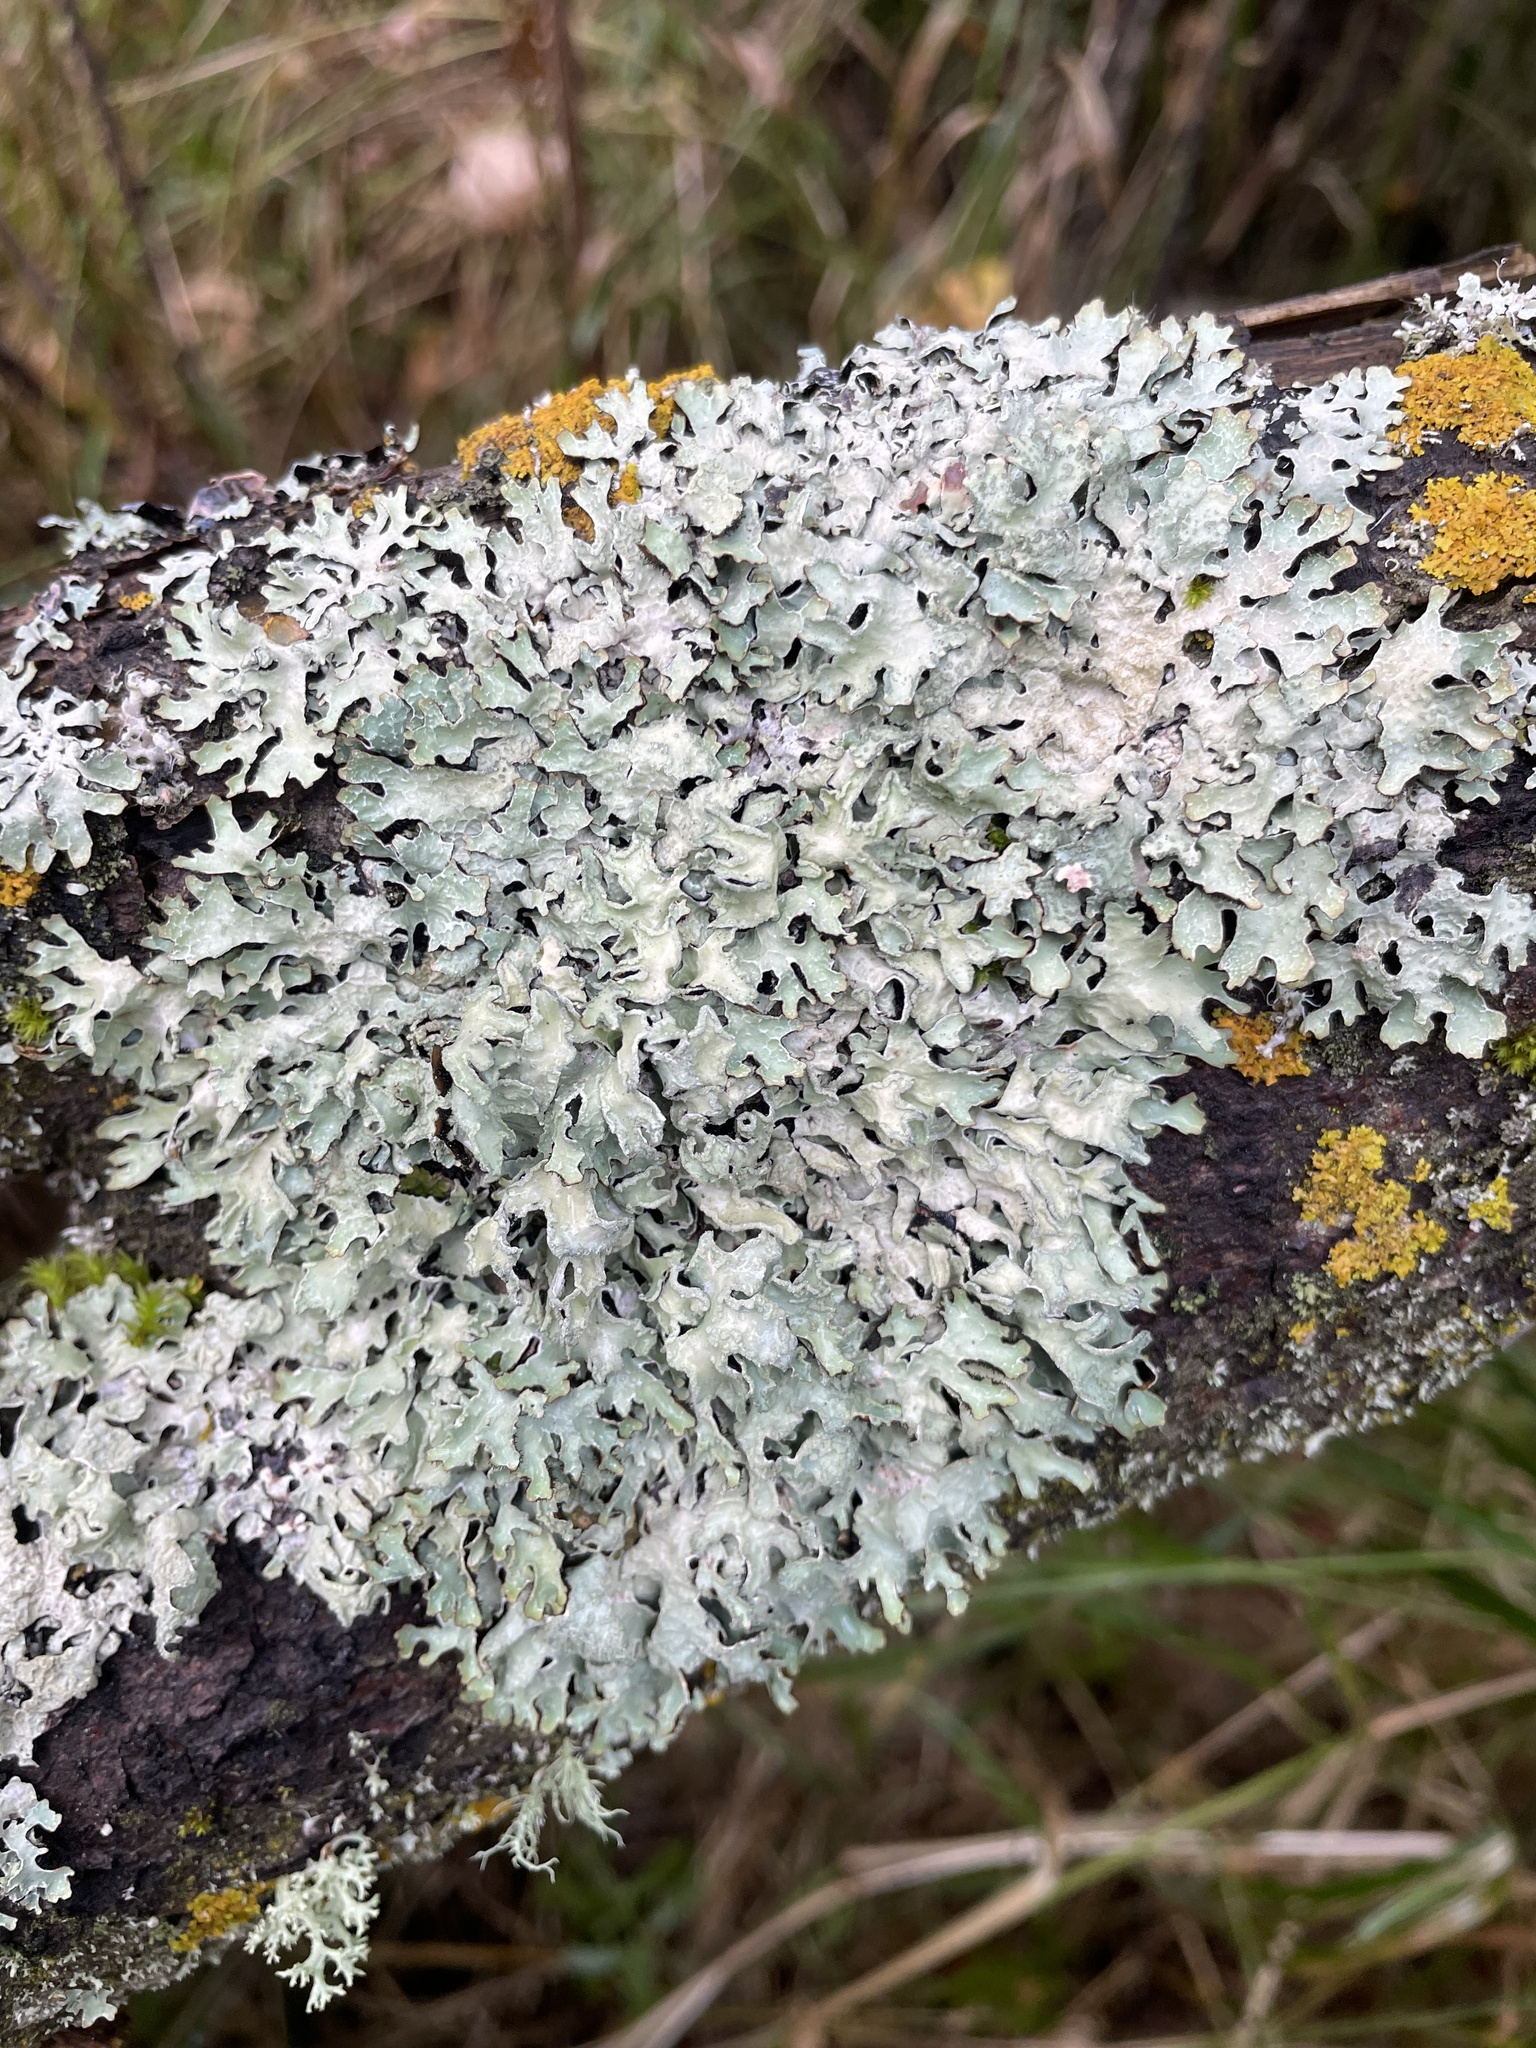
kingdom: Fungi
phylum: Ascomycota
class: Lecanoromycetes
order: Lecanorales
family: Parmeliaceae
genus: Parmelia
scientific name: Parmelia sulcata
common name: Netted shield lichen
